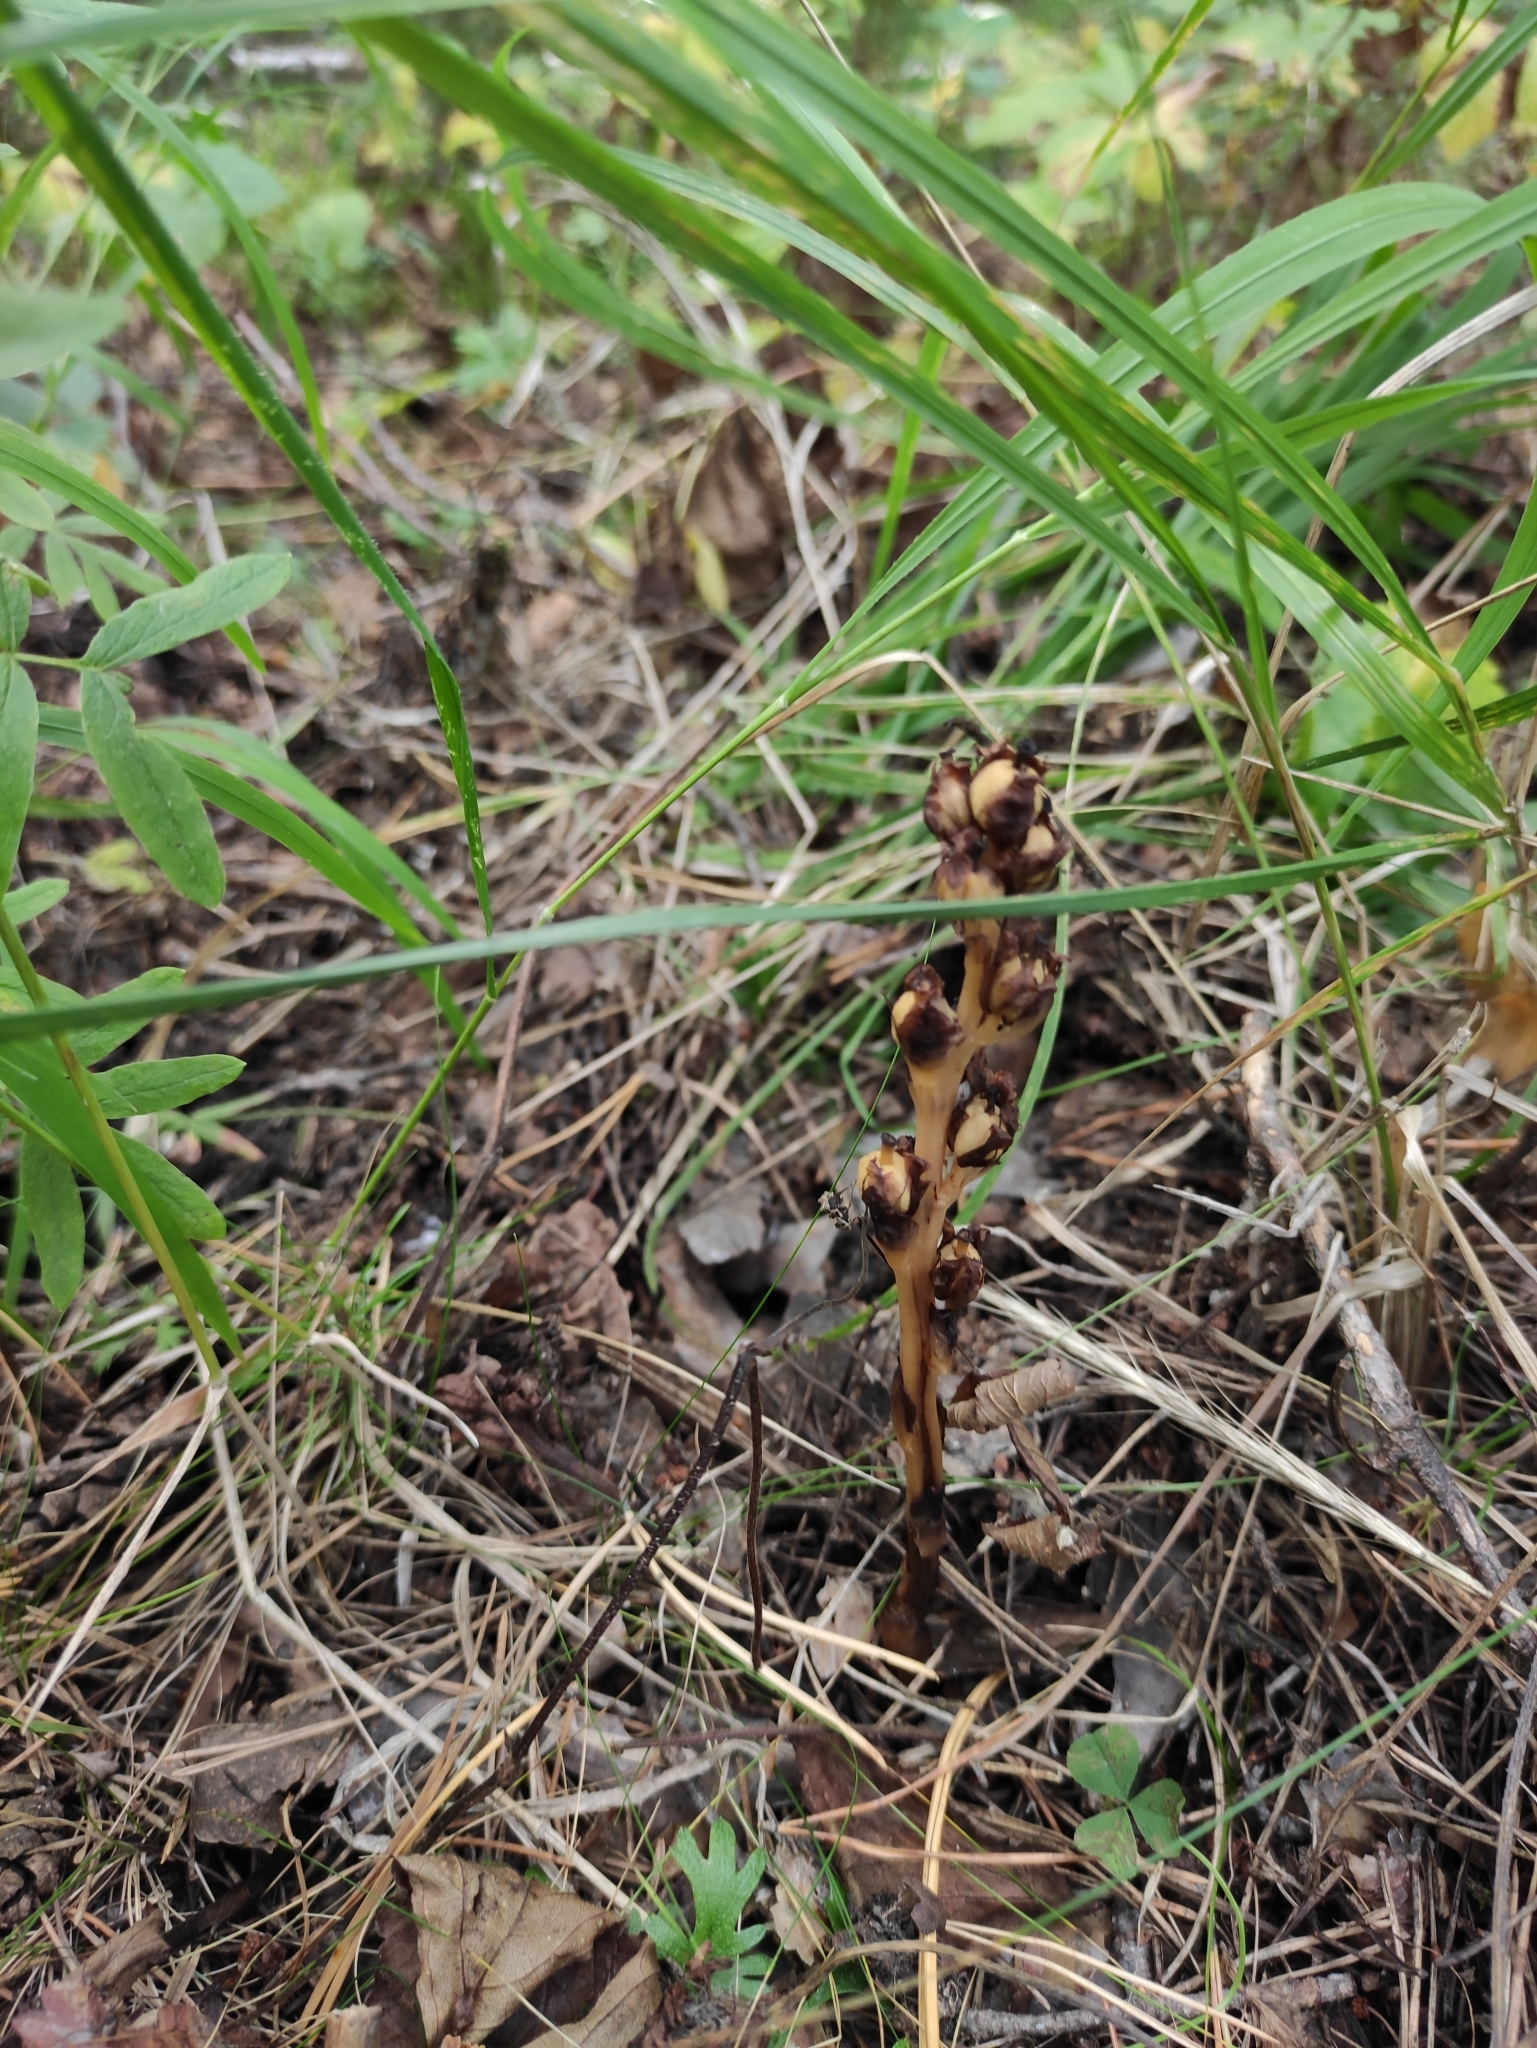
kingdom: Plantae
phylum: Tracheophyta
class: Magnoliopsida
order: Ericales
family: Ericaceae
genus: Hypopitys
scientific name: Hypopitys monotropa
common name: Yellow bird's-nest
